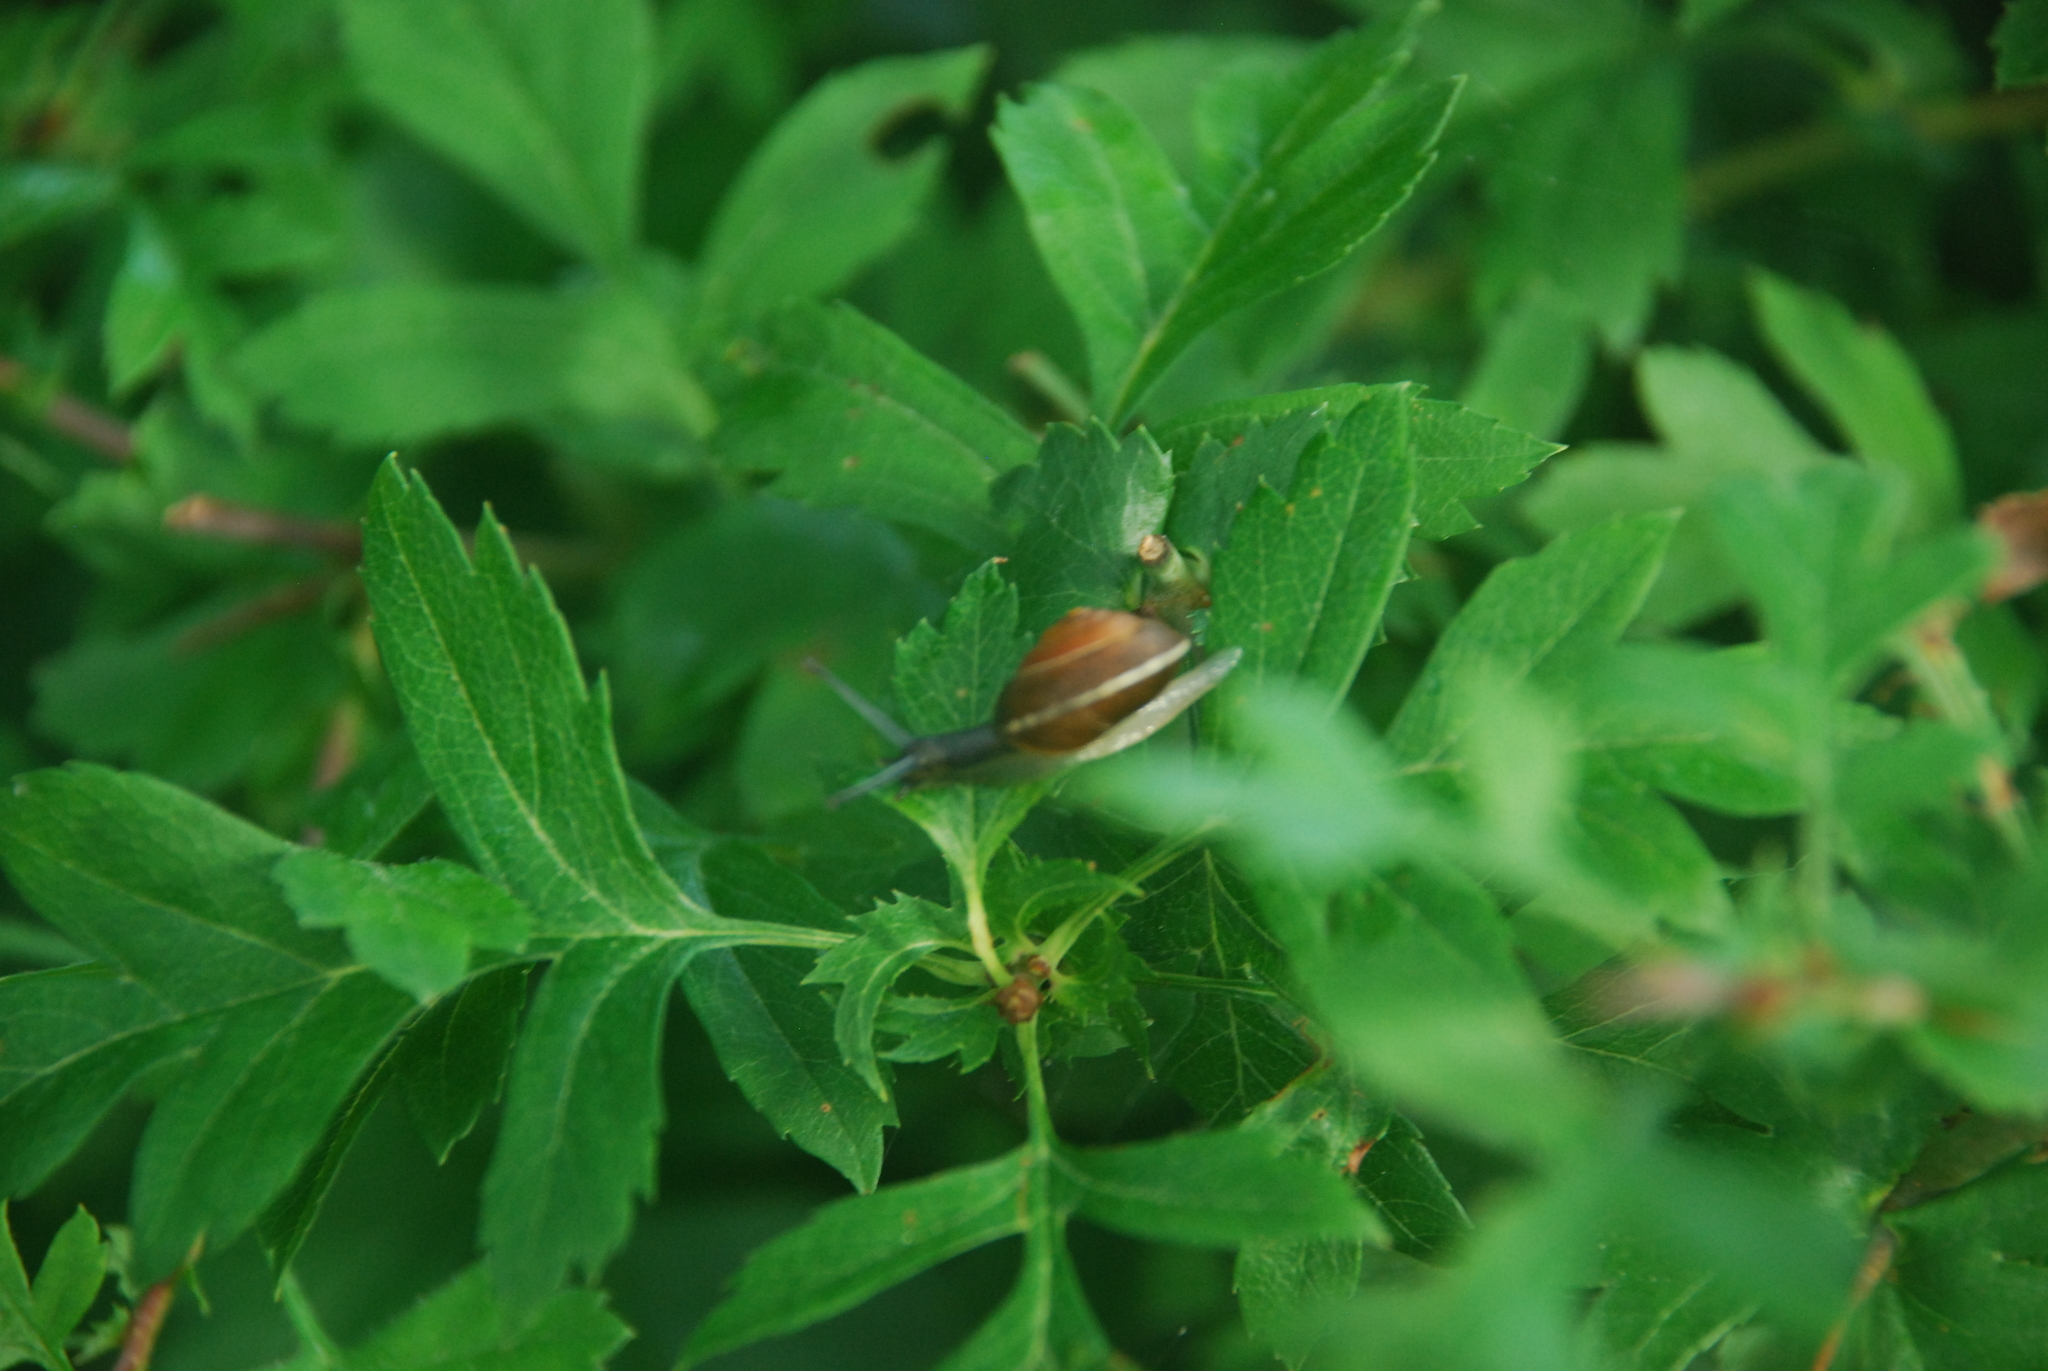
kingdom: Animalia
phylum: Mollusca
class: Gastropoda
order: Stylommatophora
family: Hygromiidae
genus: Hygromia
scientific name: Hygromia cinctella
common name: Girdled snail
